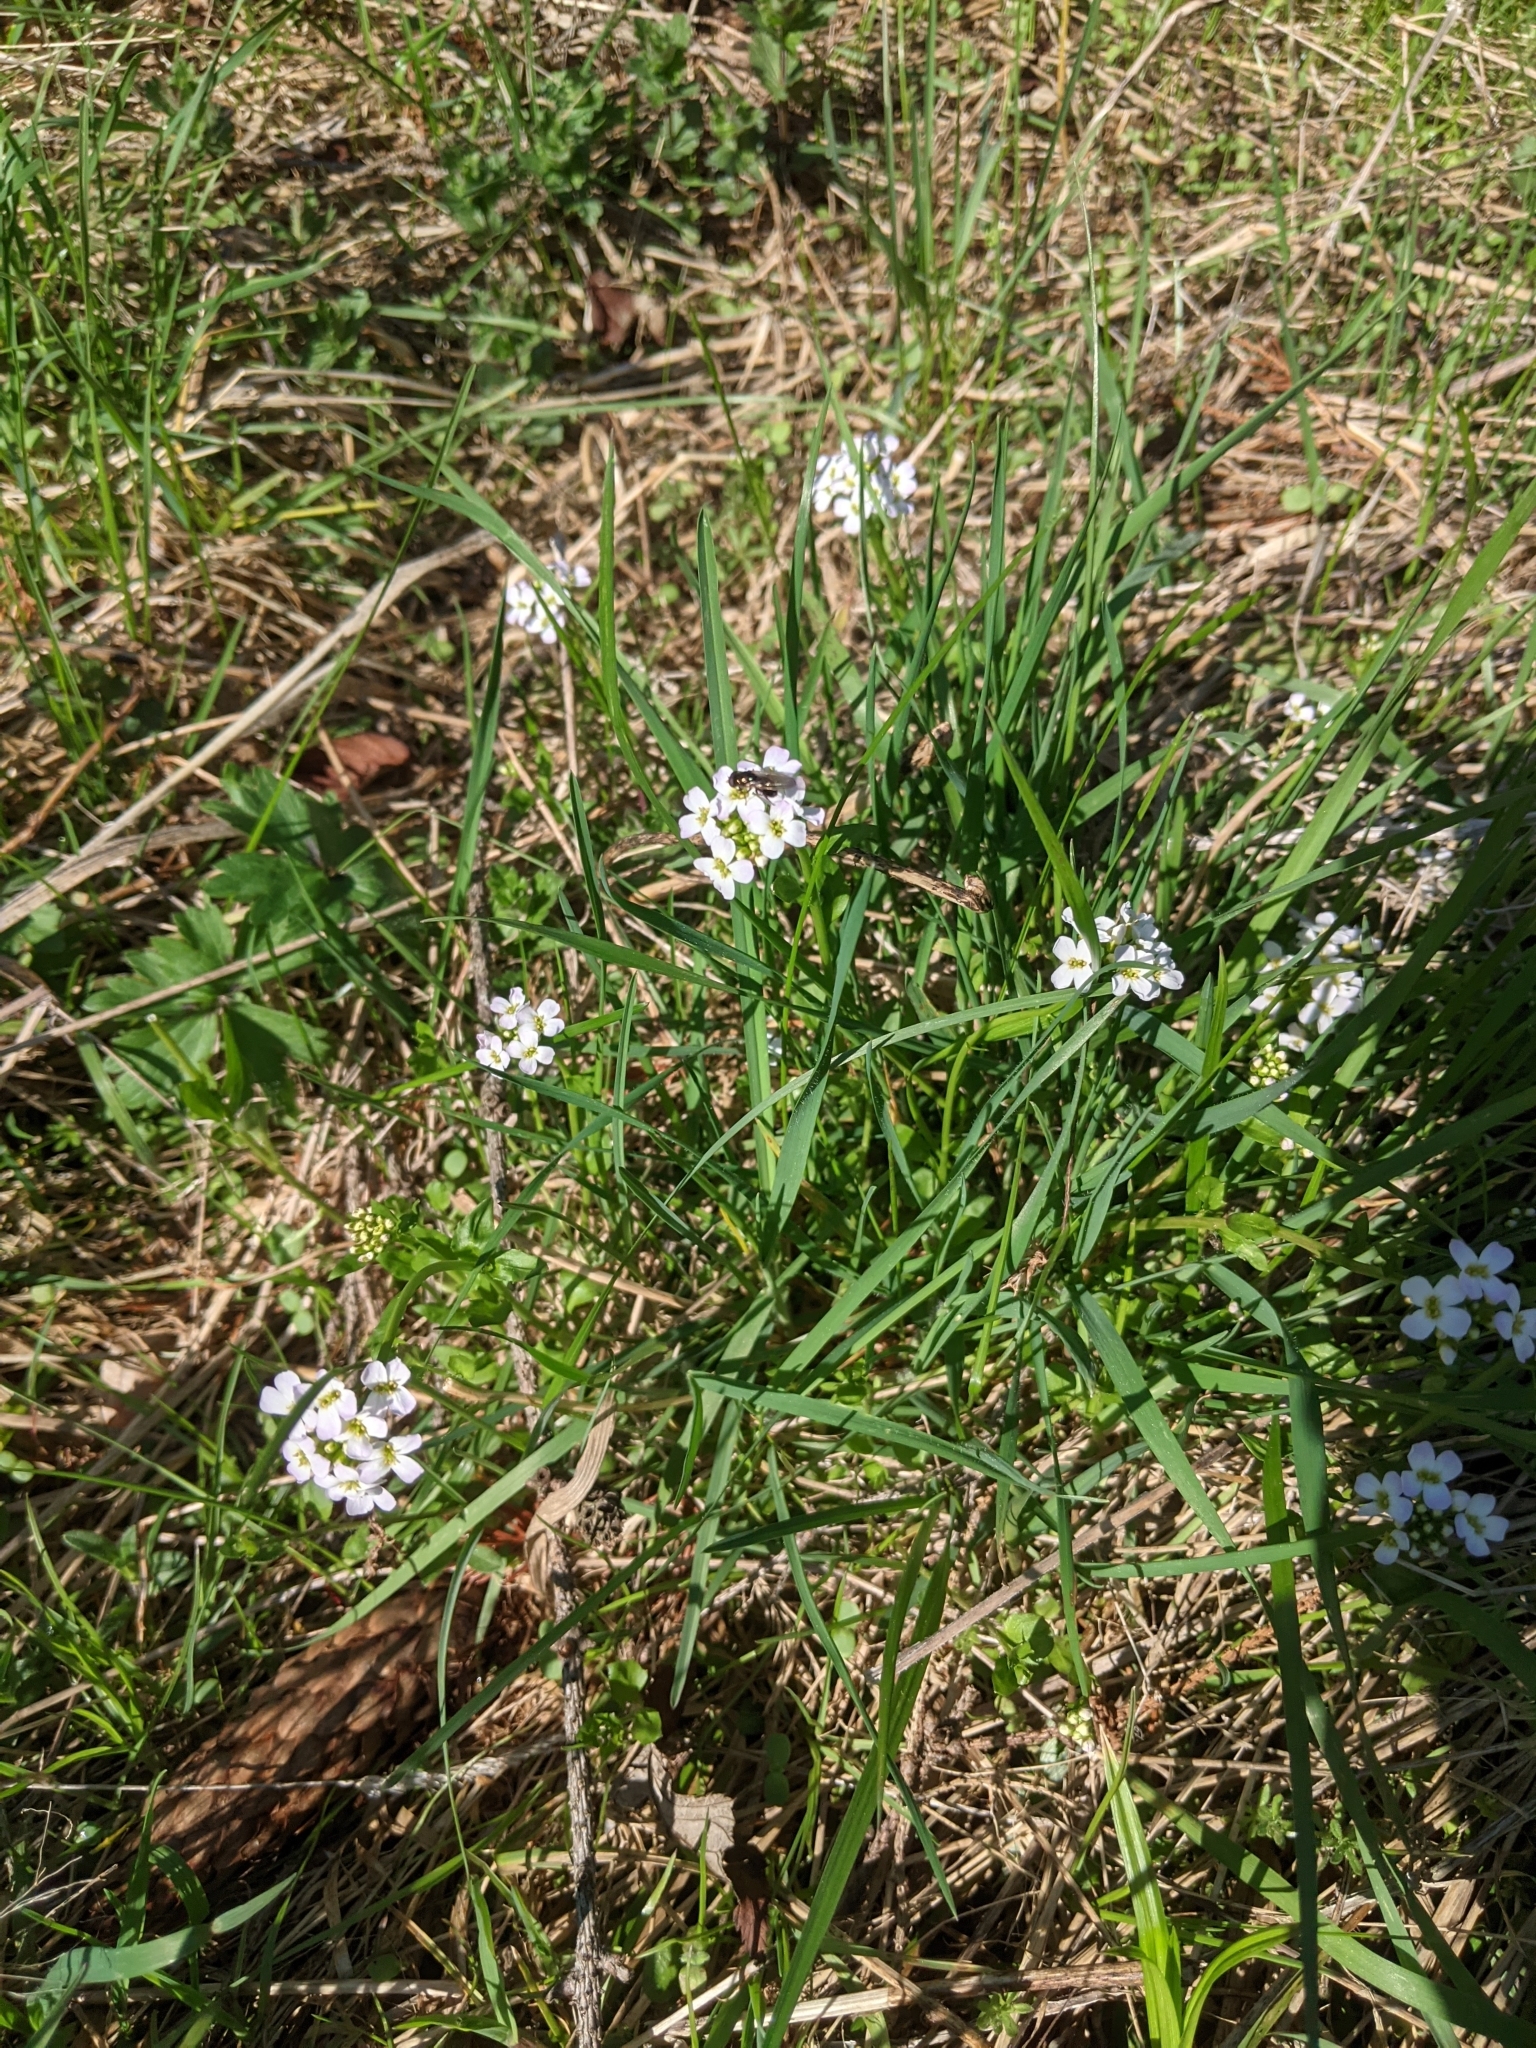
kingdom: Plantae
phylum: Tracheophyta
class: Magnoliopsida
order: Brassicales
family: Brassicaceae
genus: Arabidopsis
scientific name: Arabidopsis arenosa
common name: Sand rock-cress
